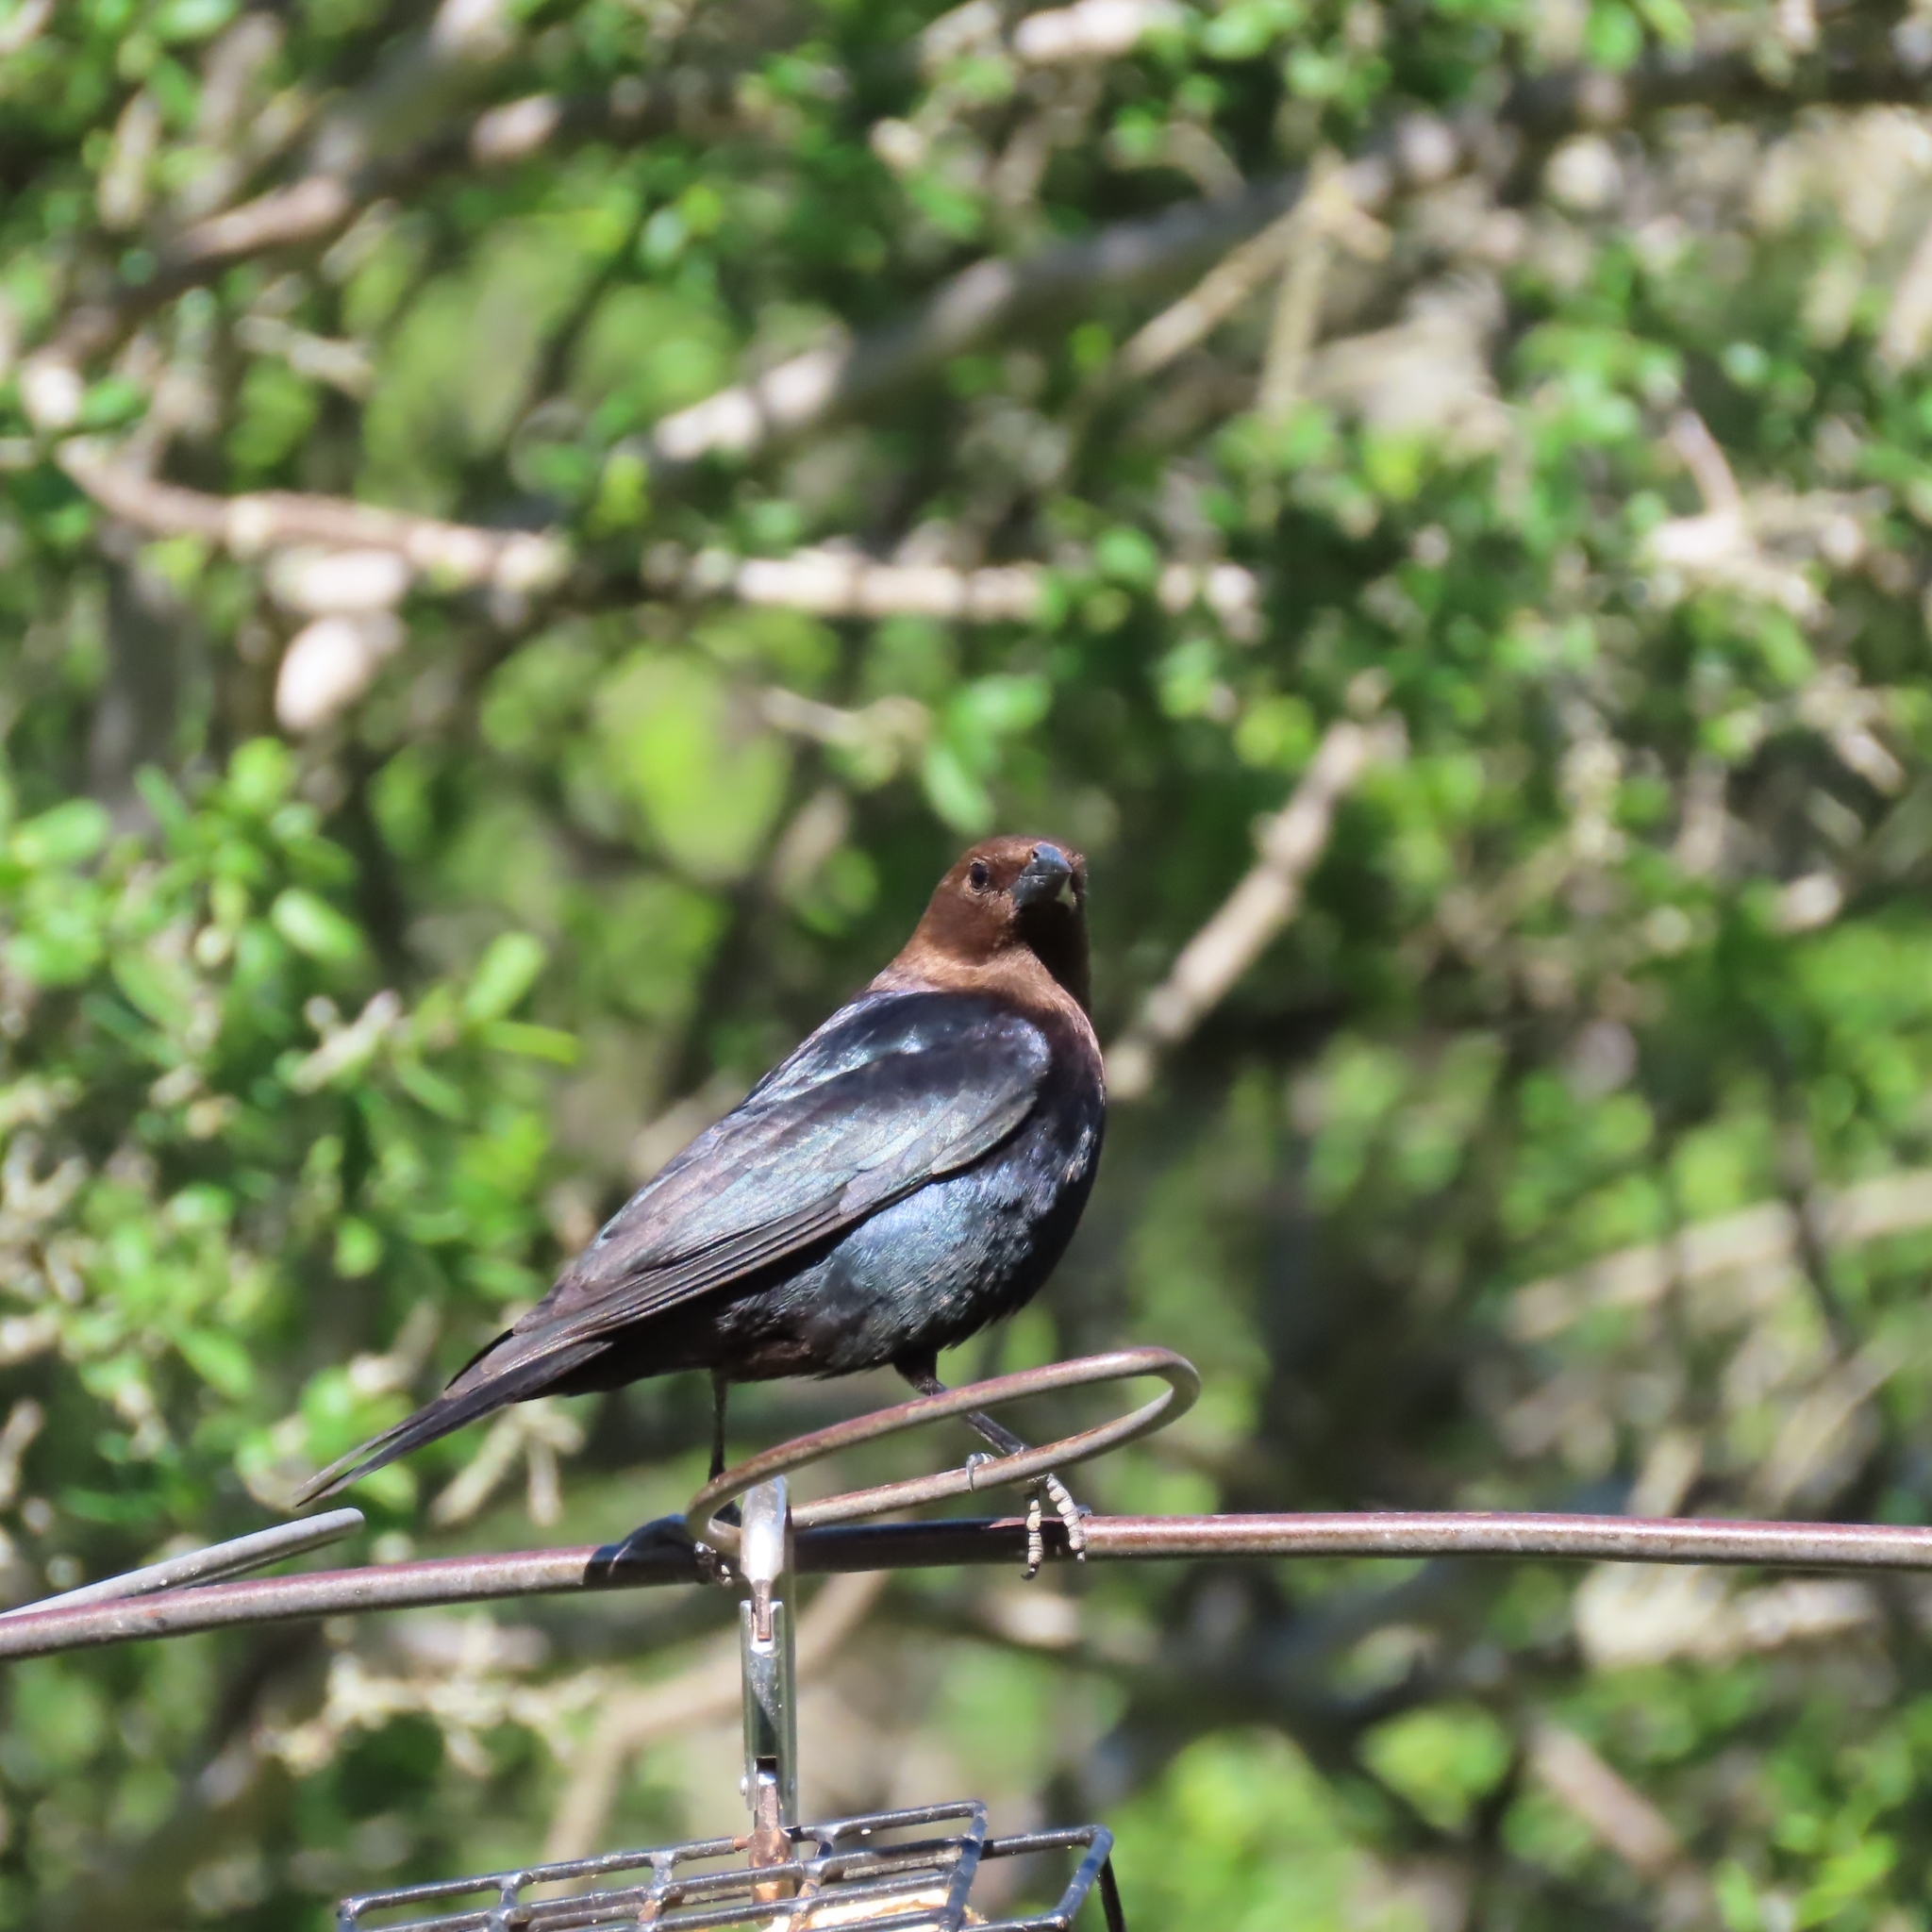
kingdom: Animalia
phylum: Chordata
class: Aves
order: Passeriformes
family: Icteridae
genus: Molothrus
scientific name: Molothrus ater
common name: Brown-headed cowbird
